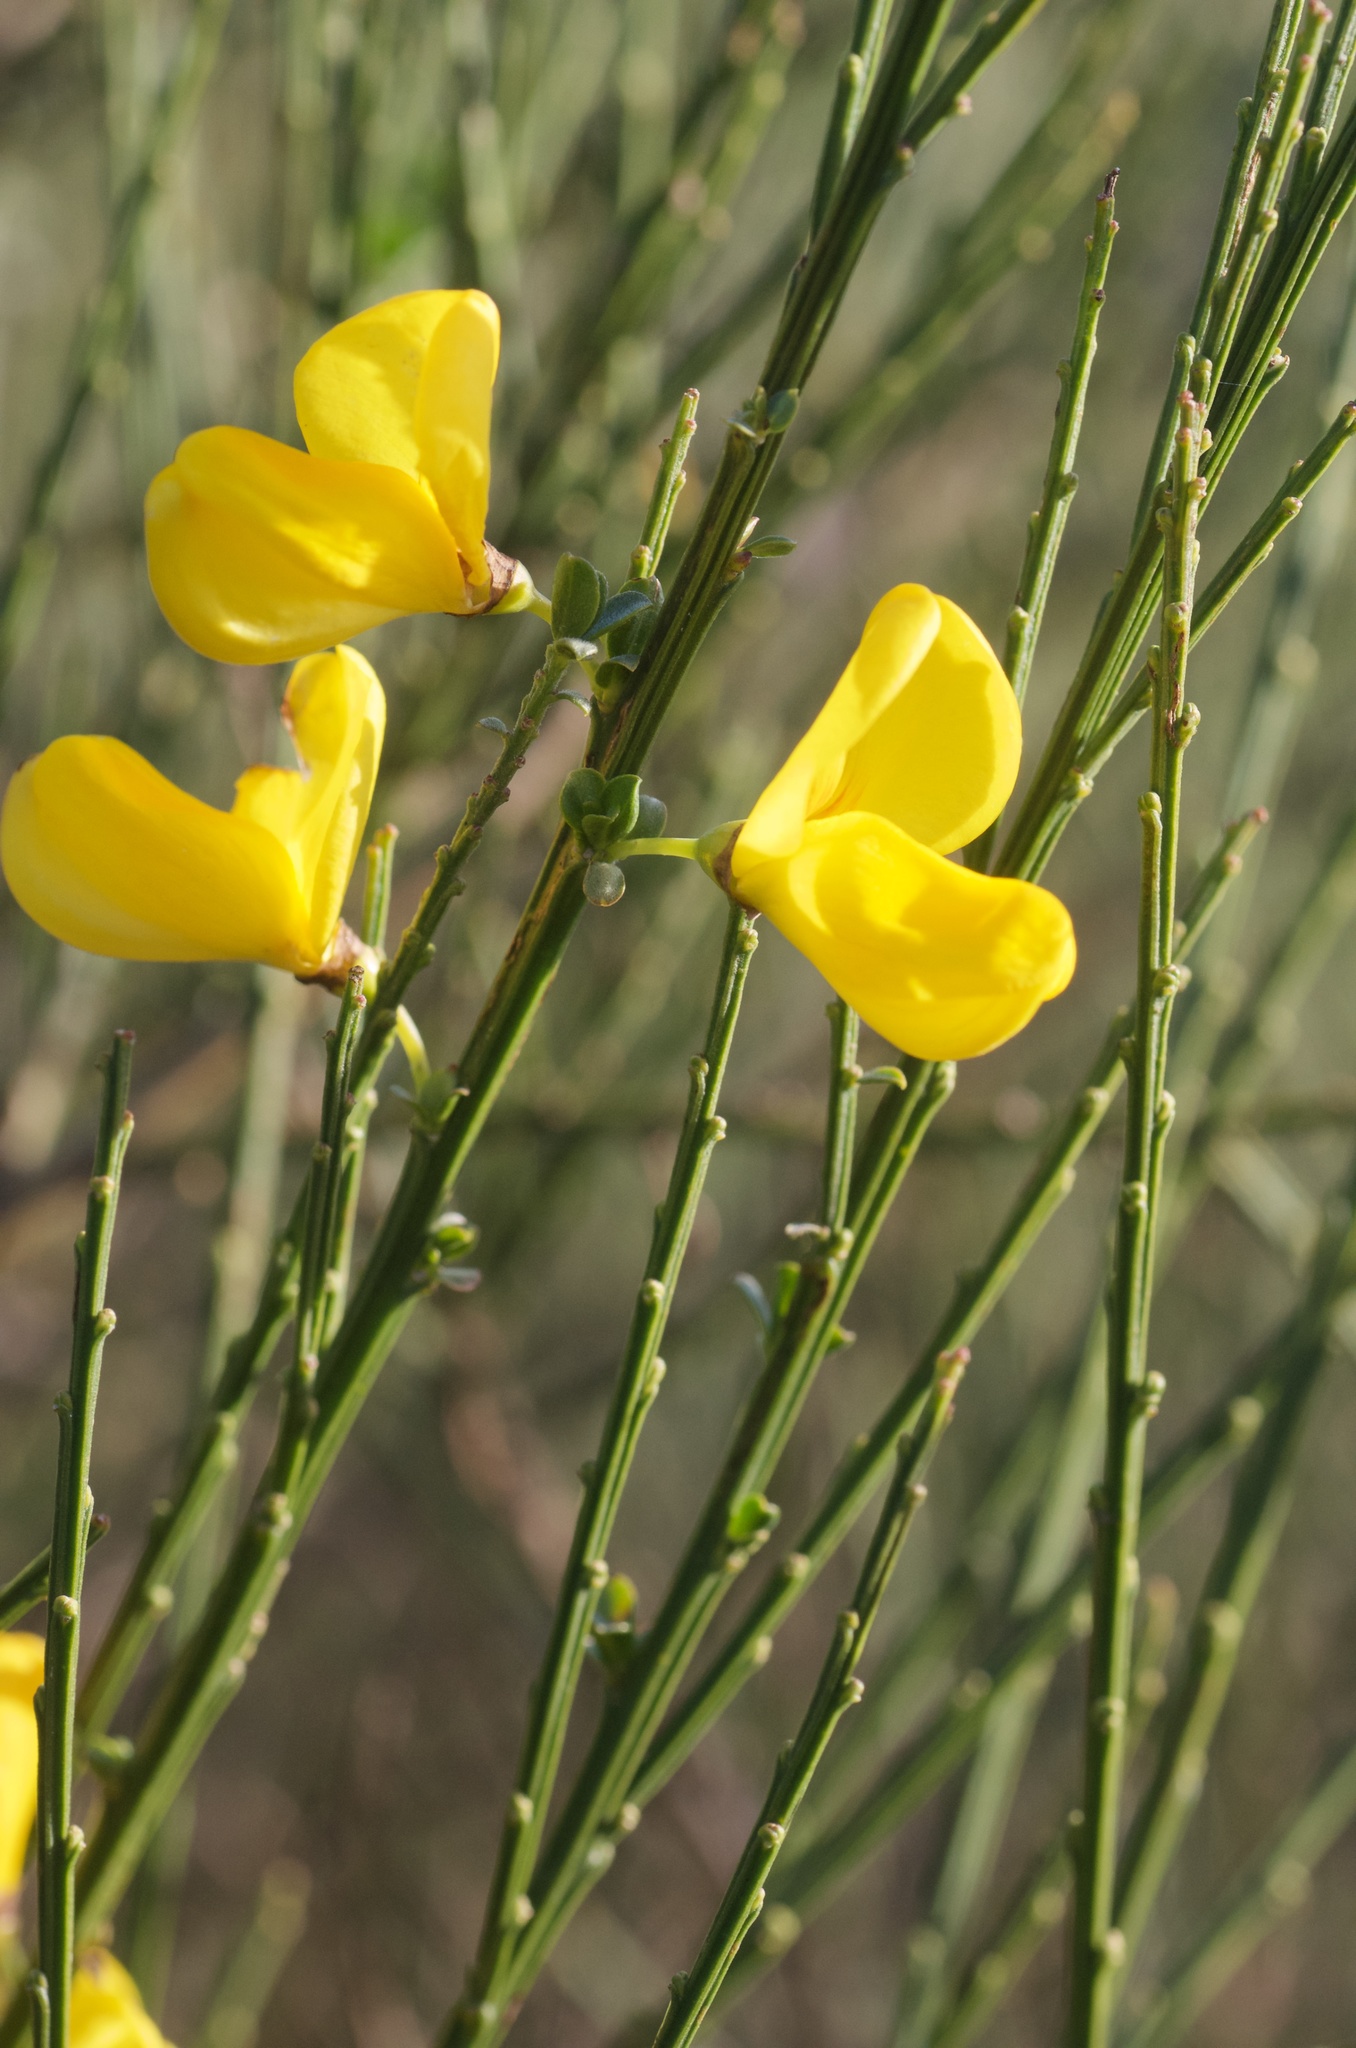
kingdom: Plantae
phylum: Tracheophyta
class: Magnoliopsida
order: Fabales
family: Fabaceae
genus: Cytisus
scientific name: Cytisus scoparius
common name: Scotch broom
